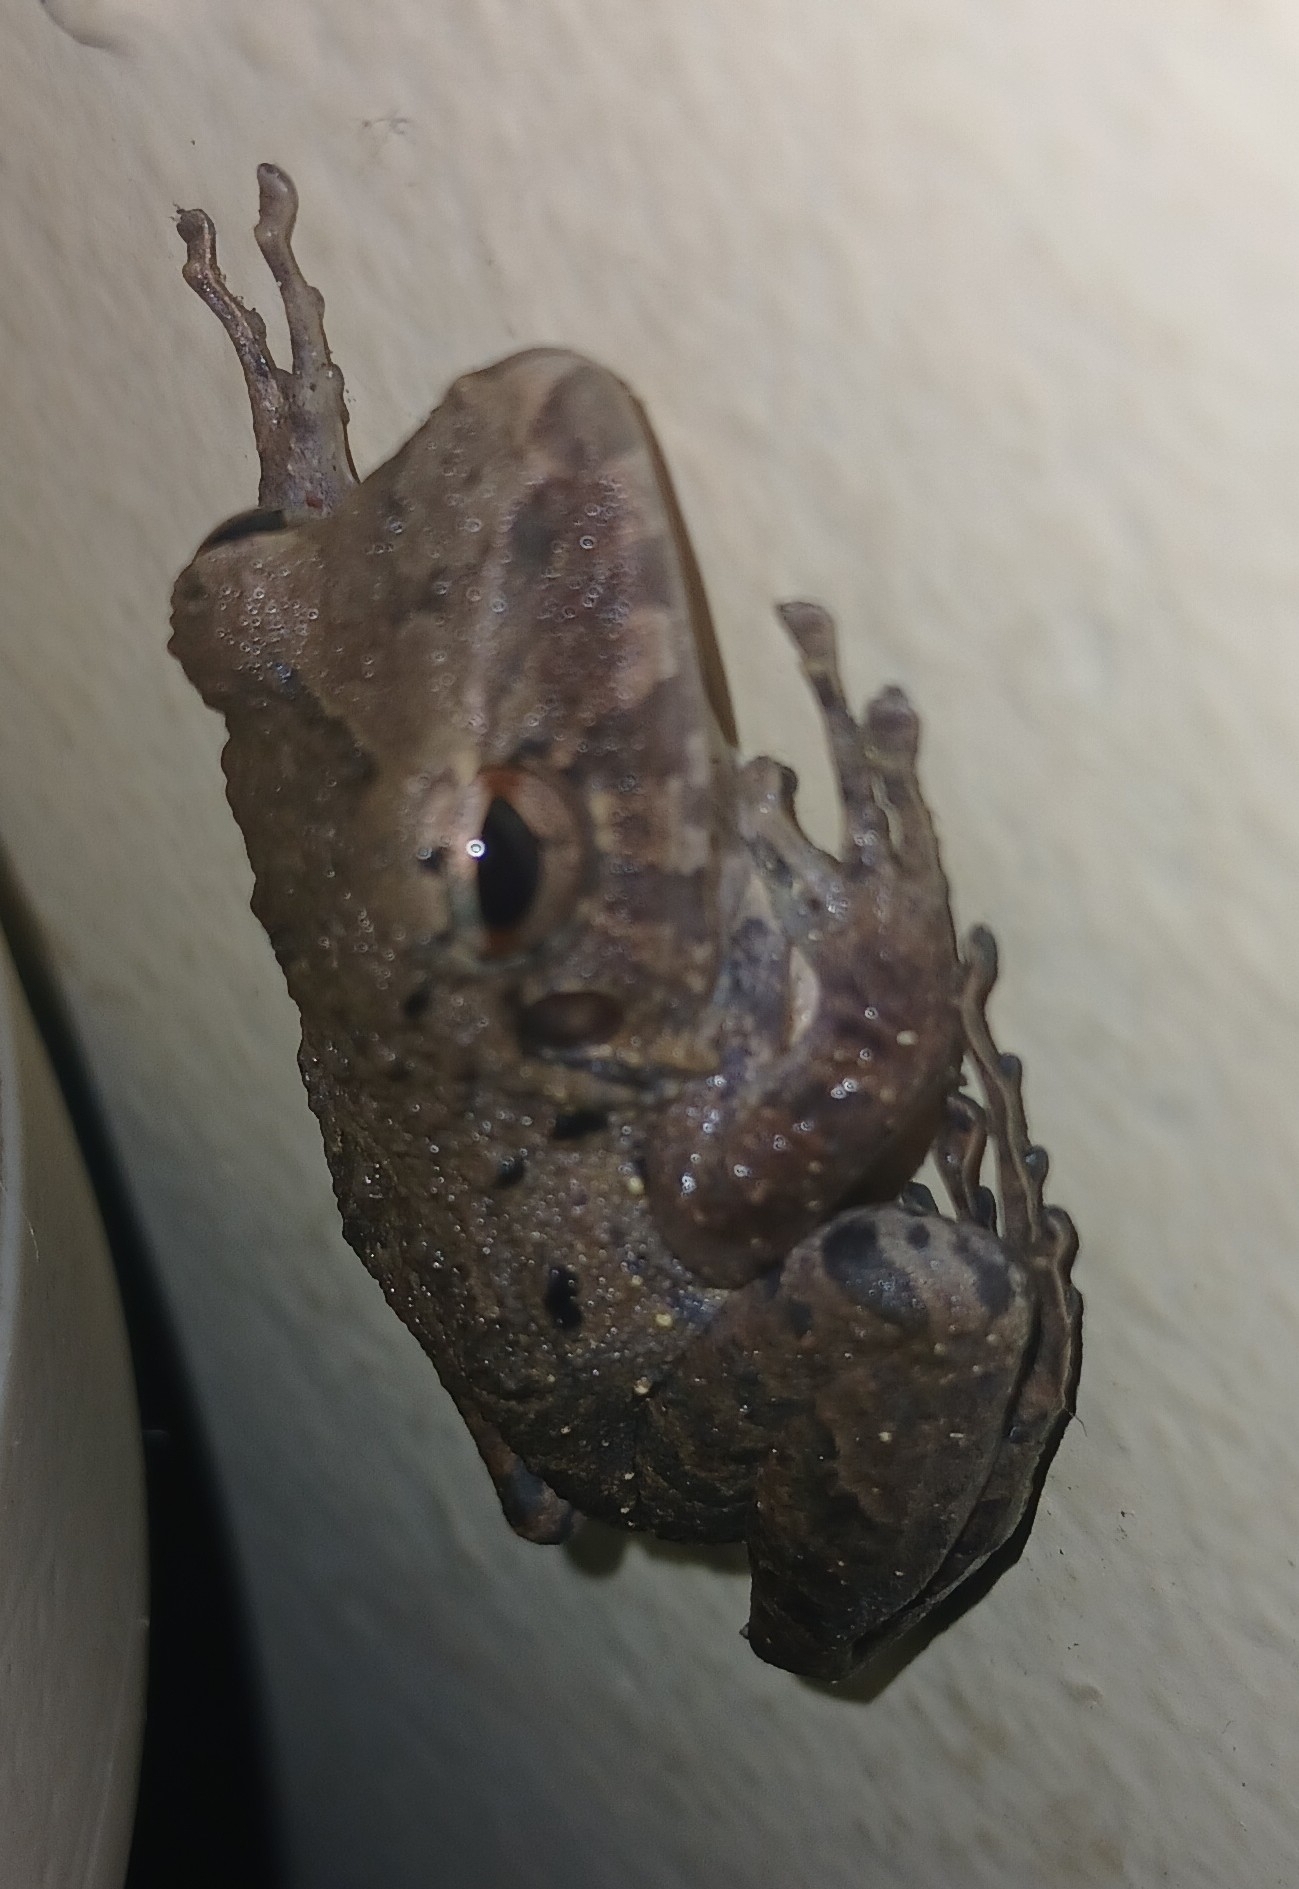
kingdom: Animalia
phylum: Chordata
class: Amphibia
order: Anura
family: Craugastoridae
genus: Craugastor
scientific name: Craugastor fitzingeri
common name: Fitzinger's robber frog
